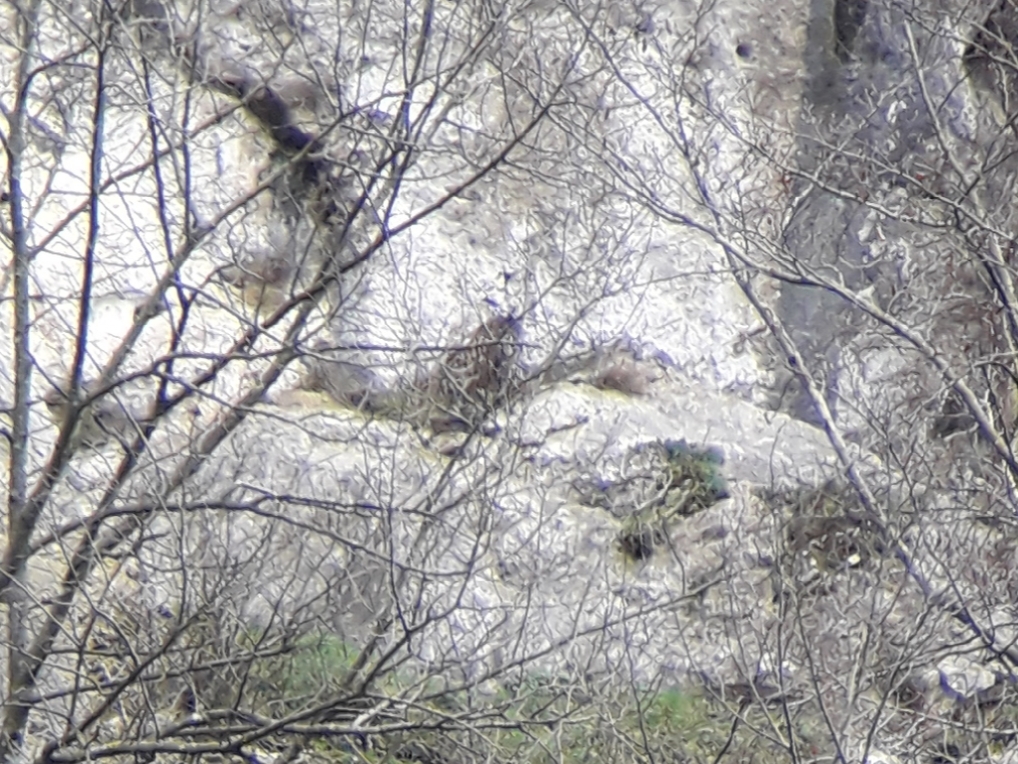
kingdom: Animalia
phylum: Chordata
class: Aves
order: Strigiformes
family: Strigidae
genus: Bubo
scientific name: Bubo bubo
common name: Eurasian eagle-owl
